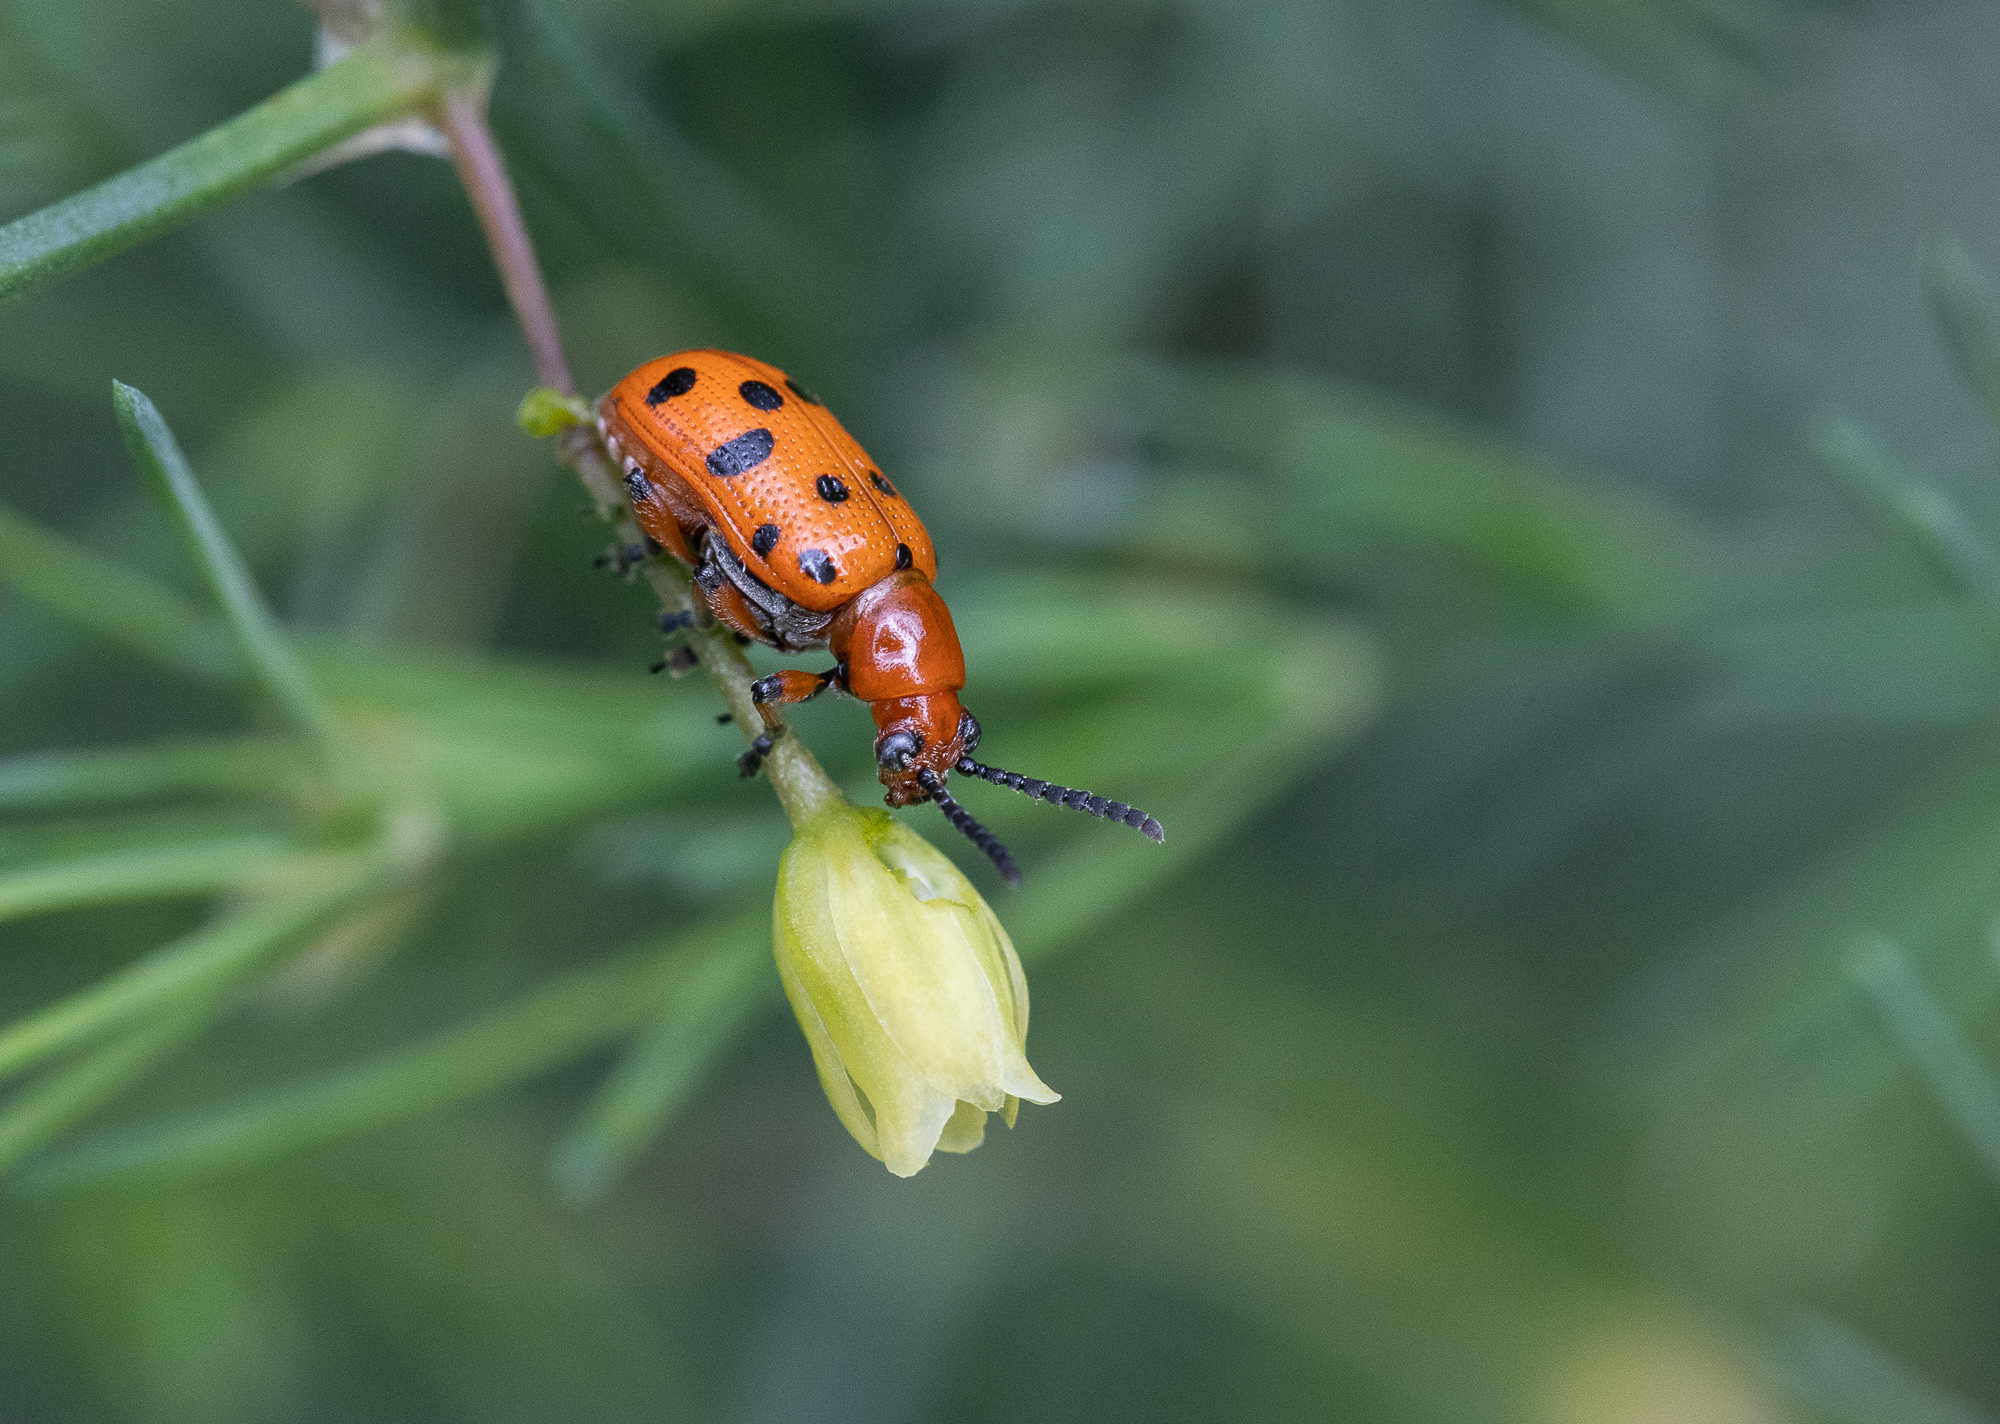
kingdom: Animalia
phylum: Arthropoda
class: Insecta
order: Coleoptera
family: Chrysomelidae
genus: Crioceris
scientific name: Crioceris duodecimpunctata
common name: Twelve-spotted asparagus beetle
